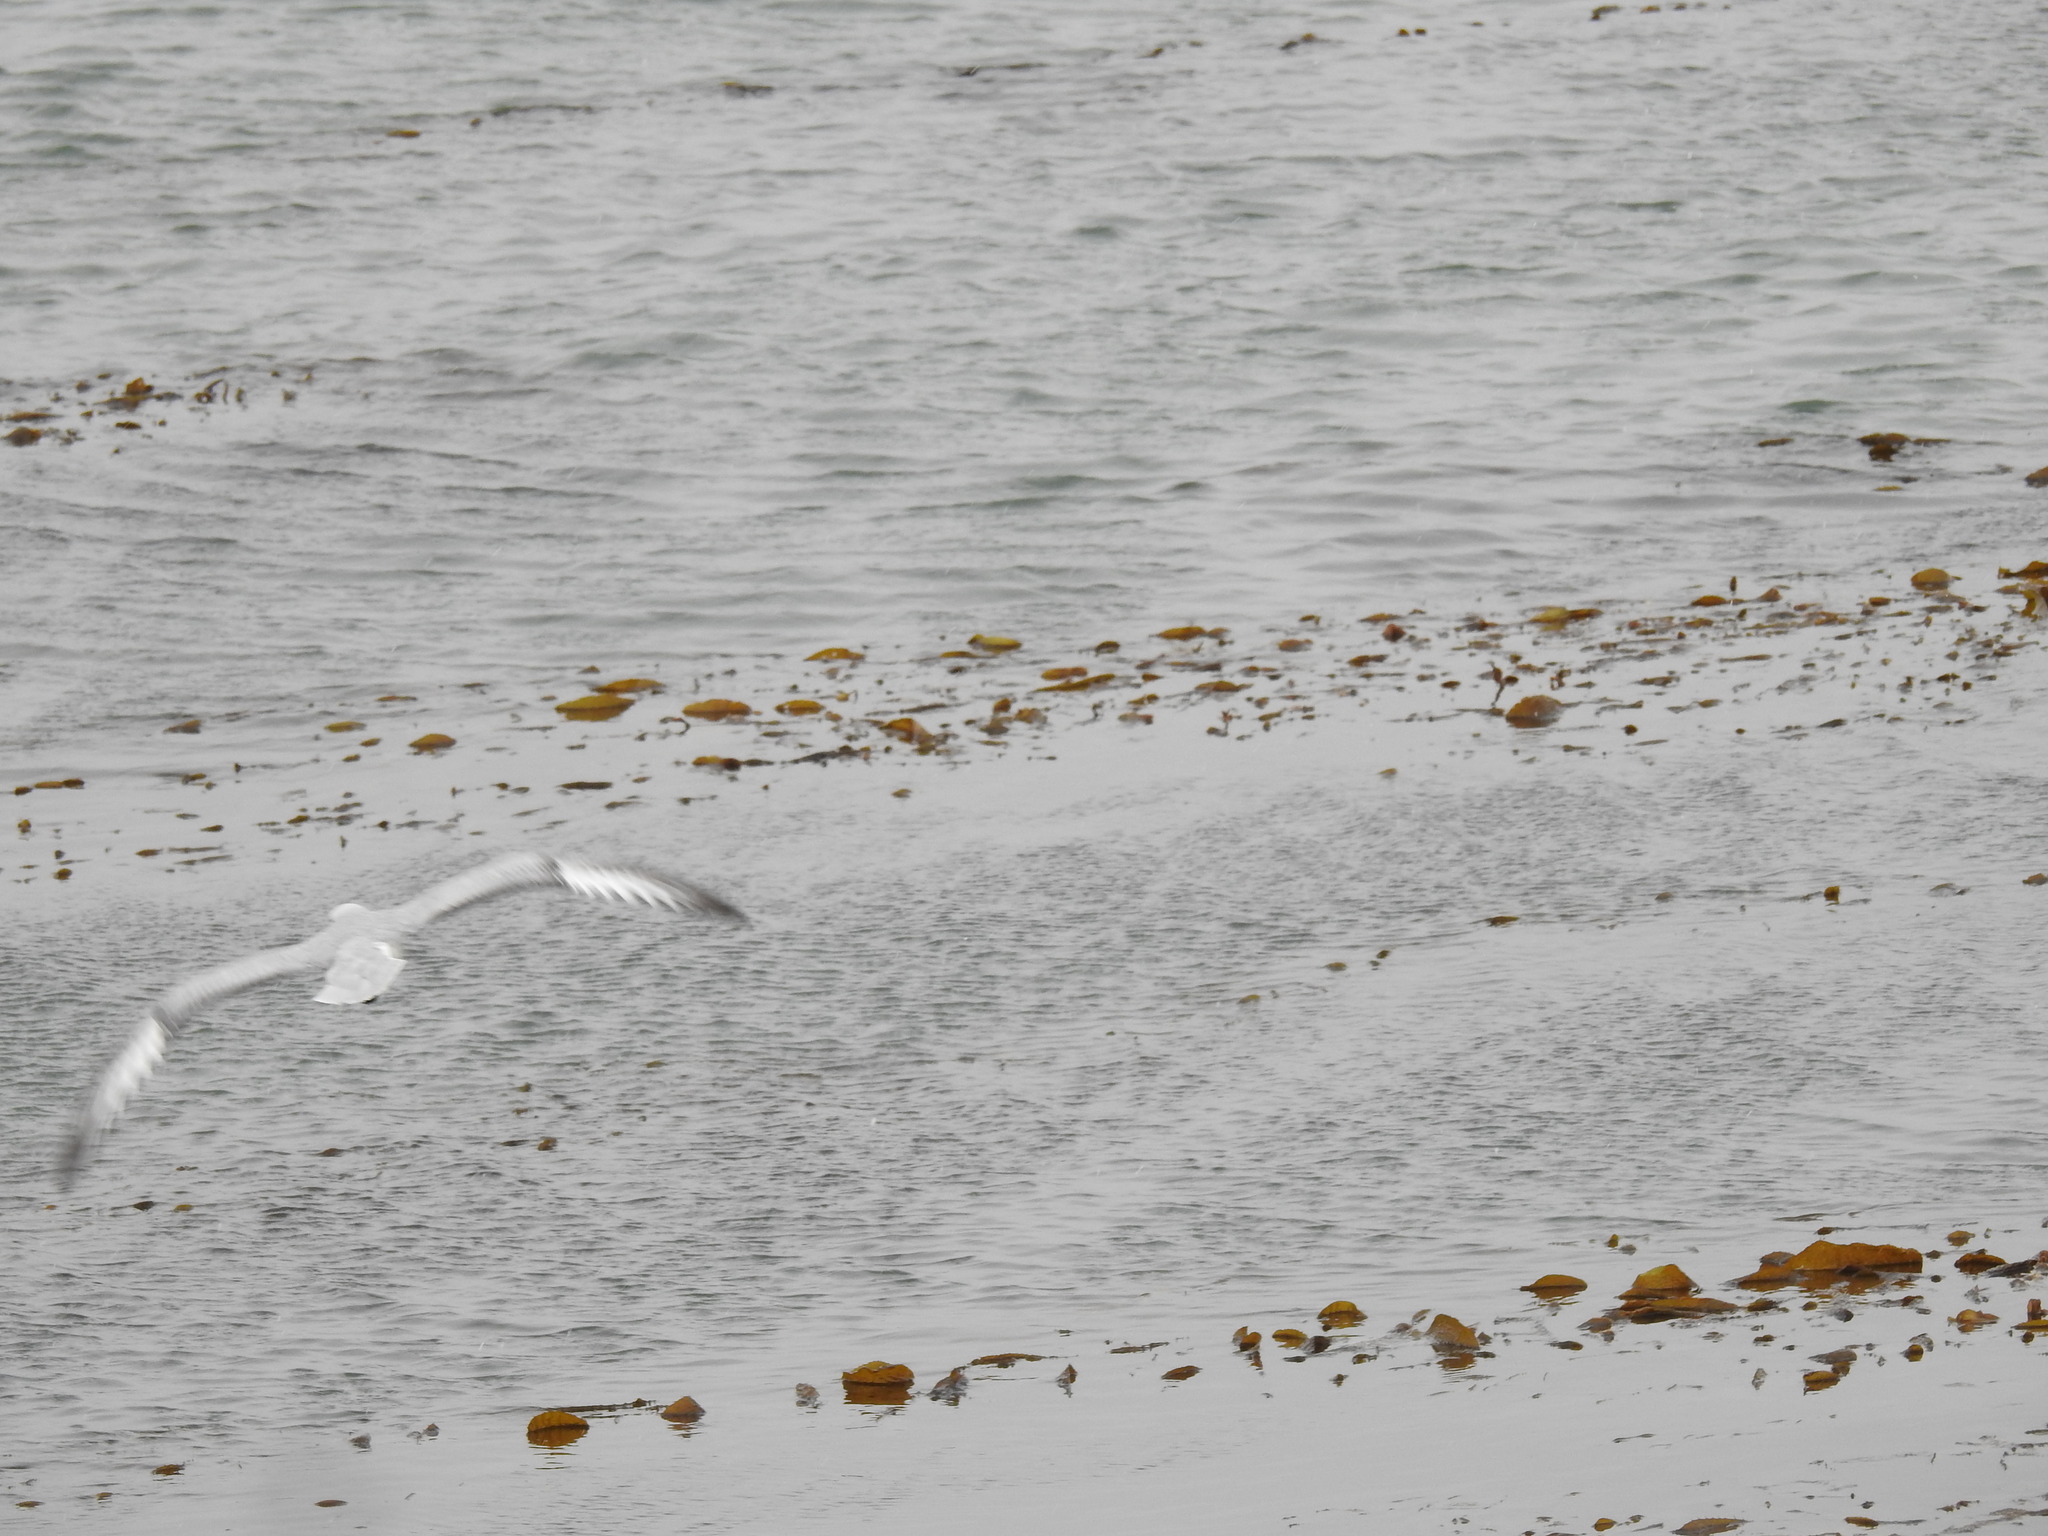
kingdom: Animalia
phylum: Chordata
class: Aves
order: Procellariiformes
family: Procellariidae
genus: Fulmarus
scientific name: Fulmarus glacialoides
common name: Southern fulmar
